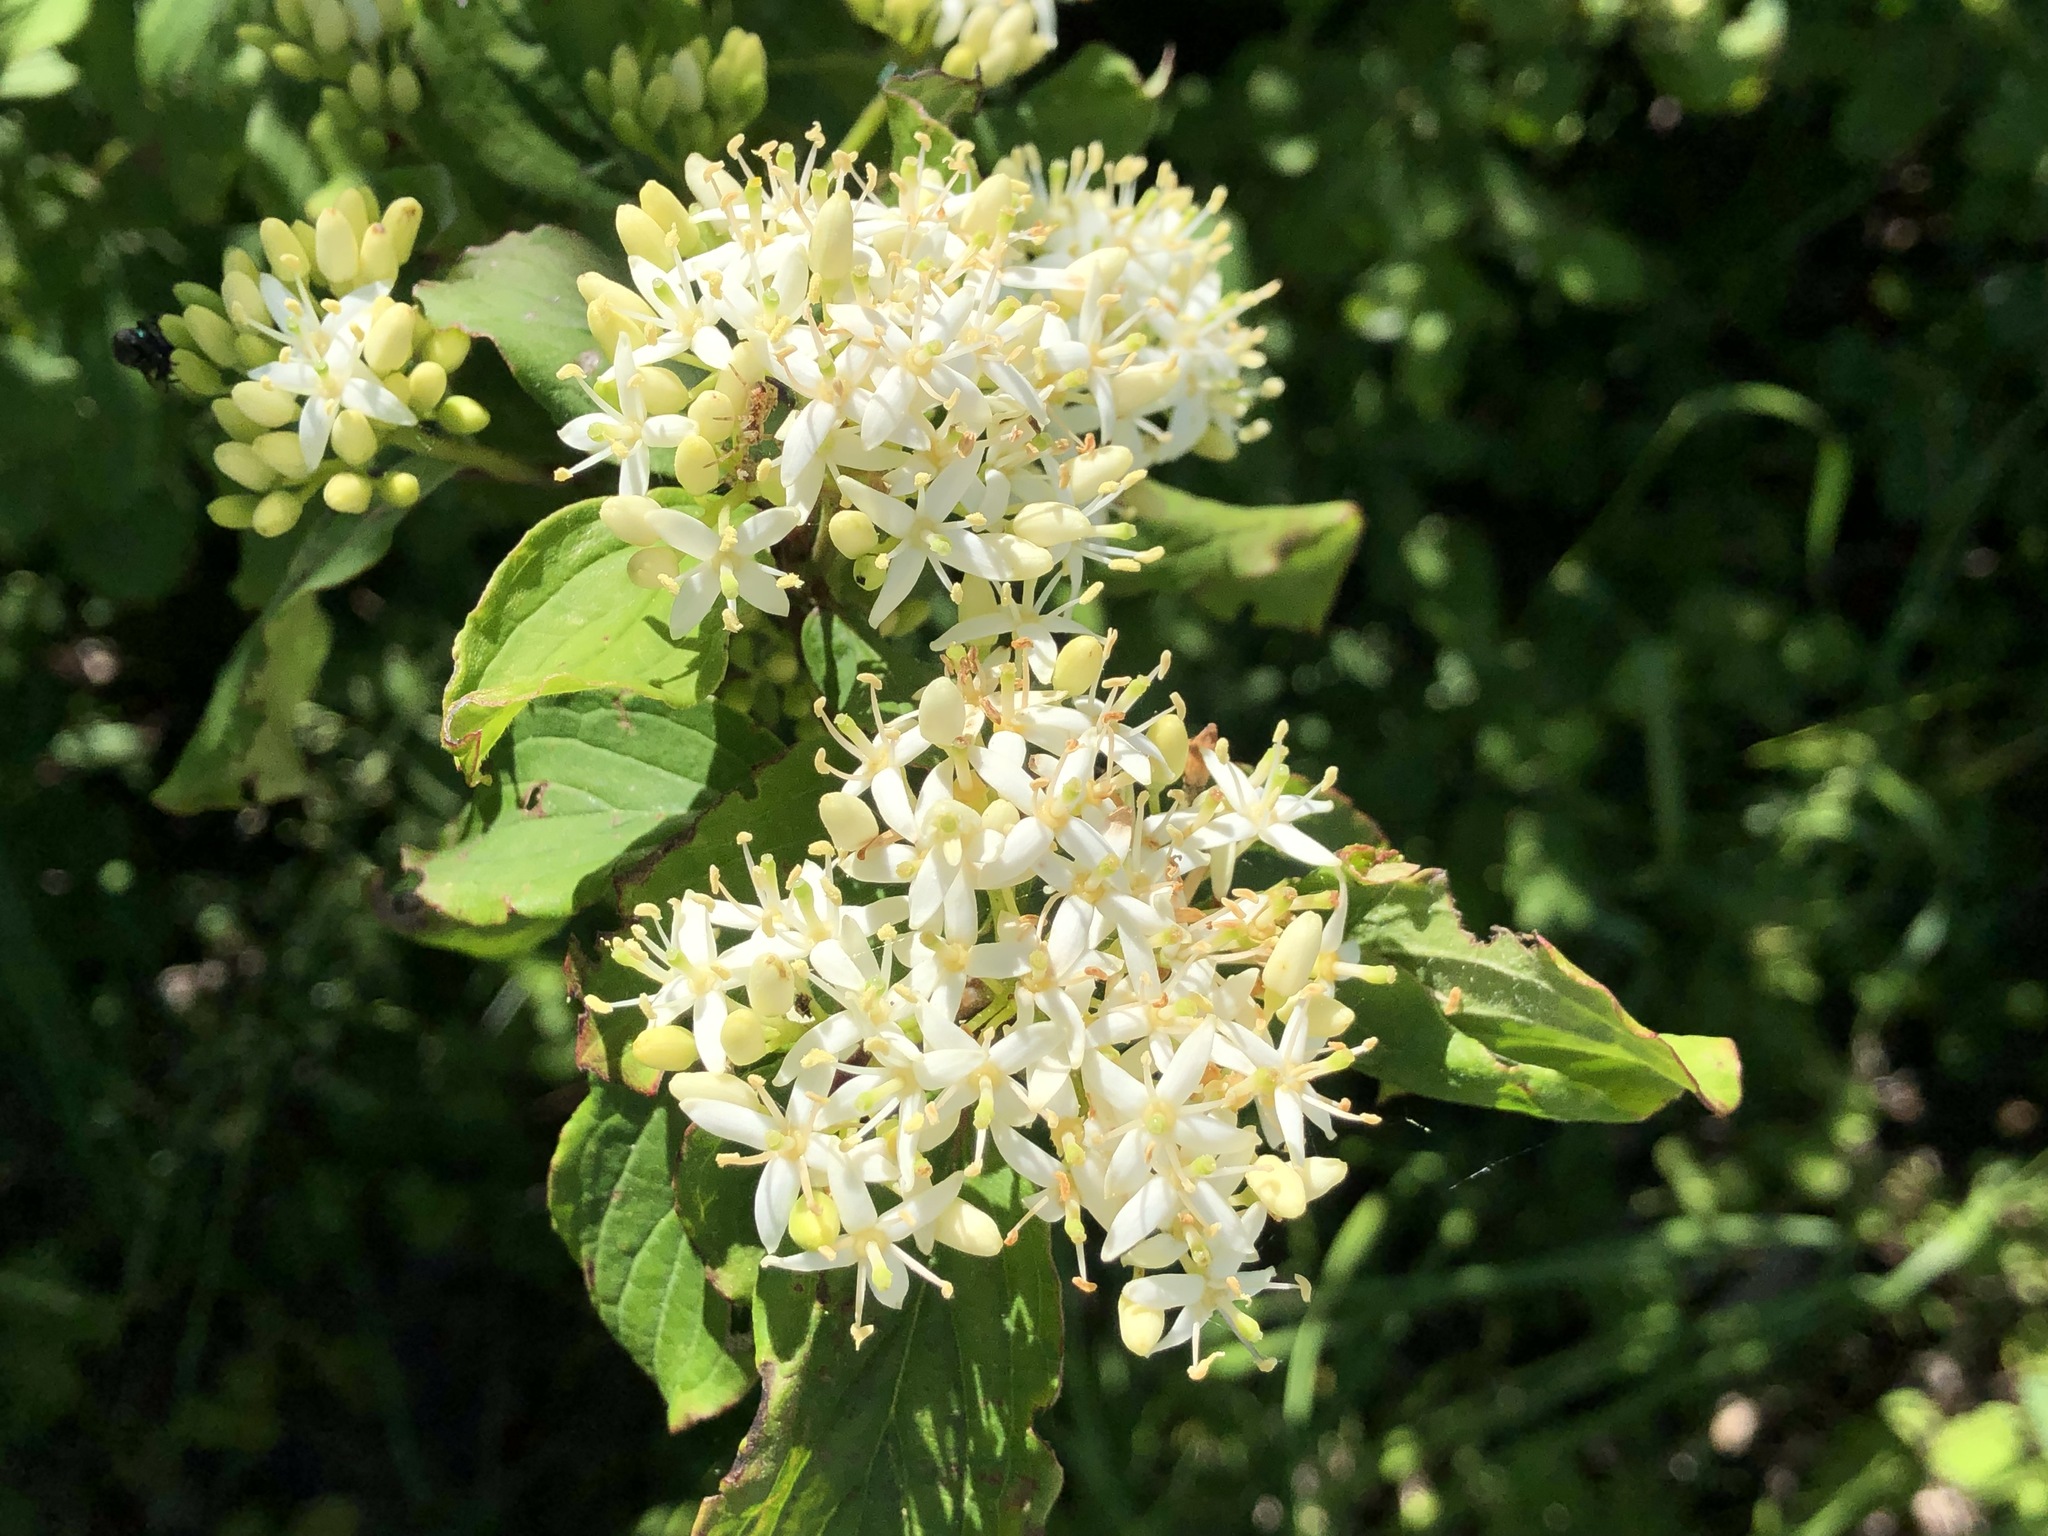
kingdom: Plantae
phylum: Tracheophyta
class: Magnoliopsida
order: Cornales
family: Cornaceae
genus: Cornus
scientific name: Cornus sanguinea
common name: Dogwood
